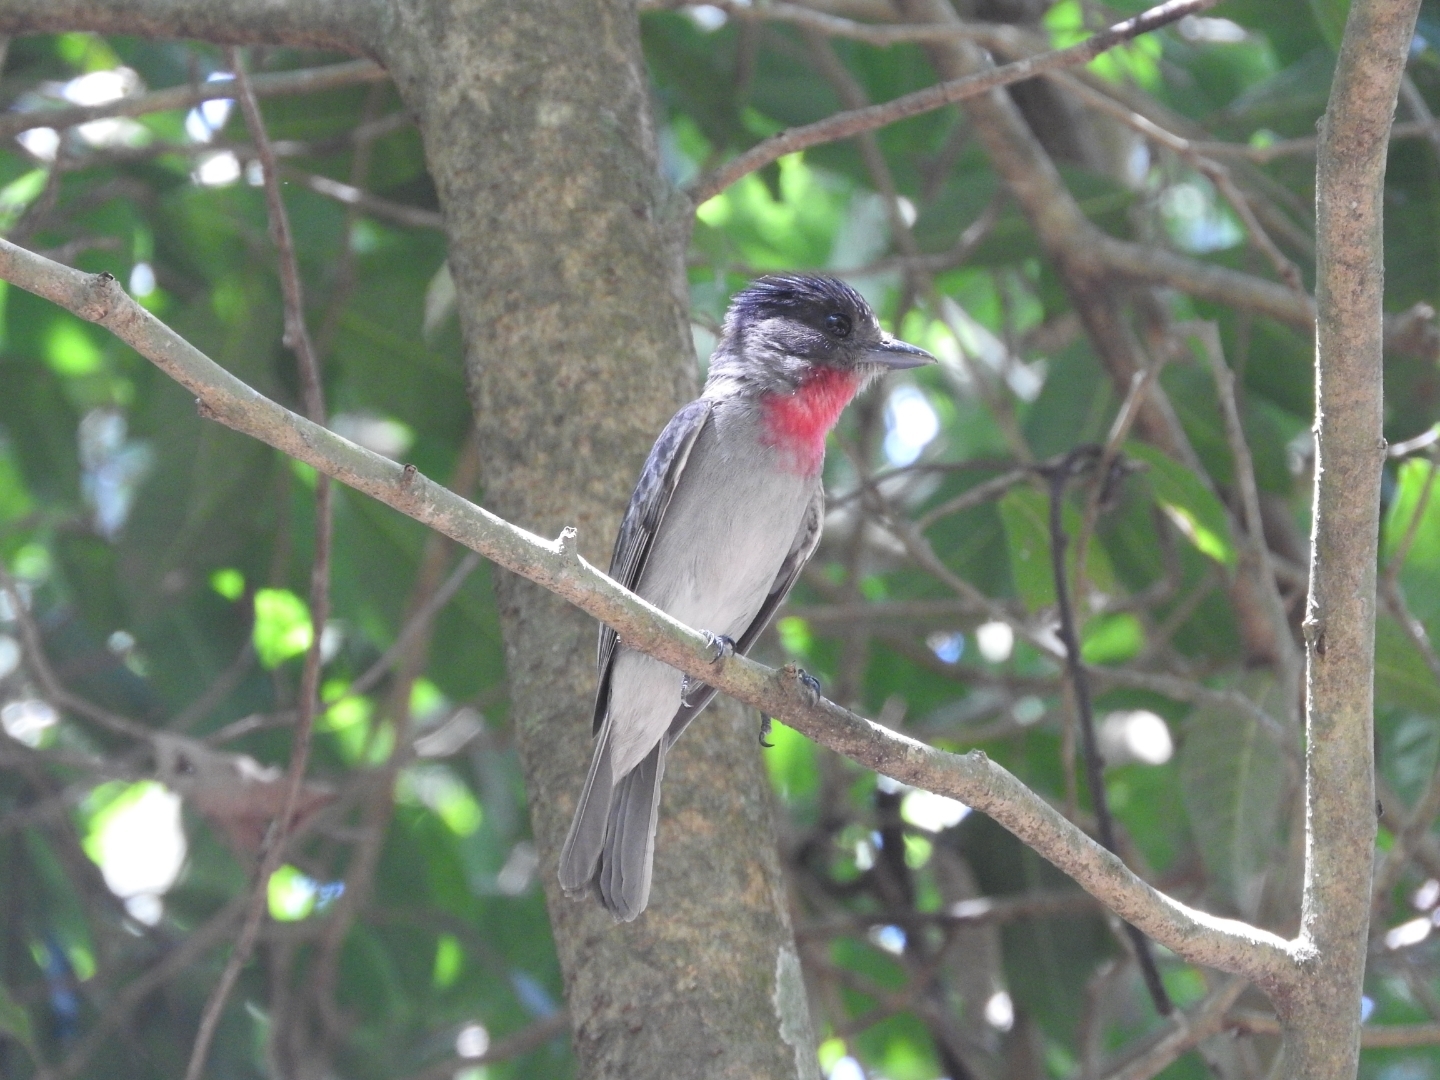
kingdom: Animalia
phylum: Chordata
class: Aves
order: Passeriformes
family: Cotingidae
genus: Pachyramphus
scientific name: Pachyramphus aglaiae
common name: Rose-throated becard
